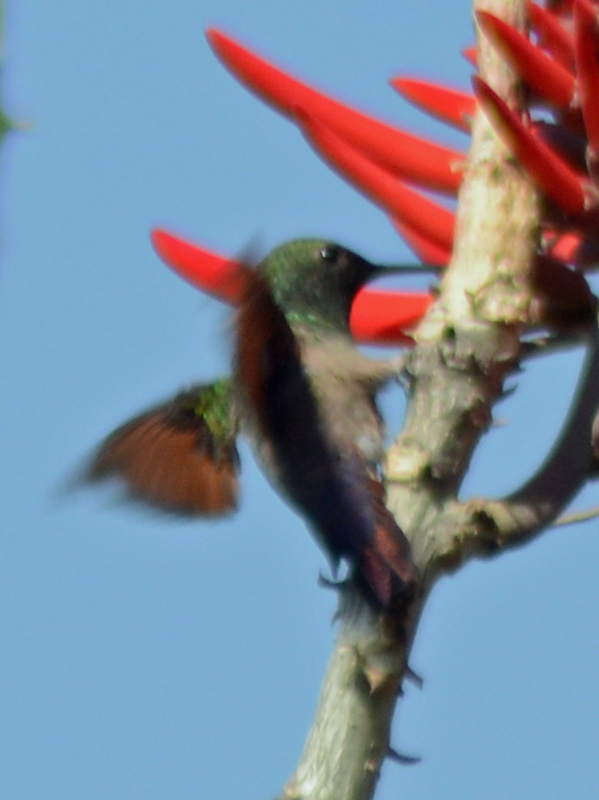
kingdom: Animalia
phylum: Chordata
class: Aves
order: Apodiformes
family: Trochilidae
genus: Saucerottia
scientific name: Saucerottia beryllina
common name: Berylline hummingbird
